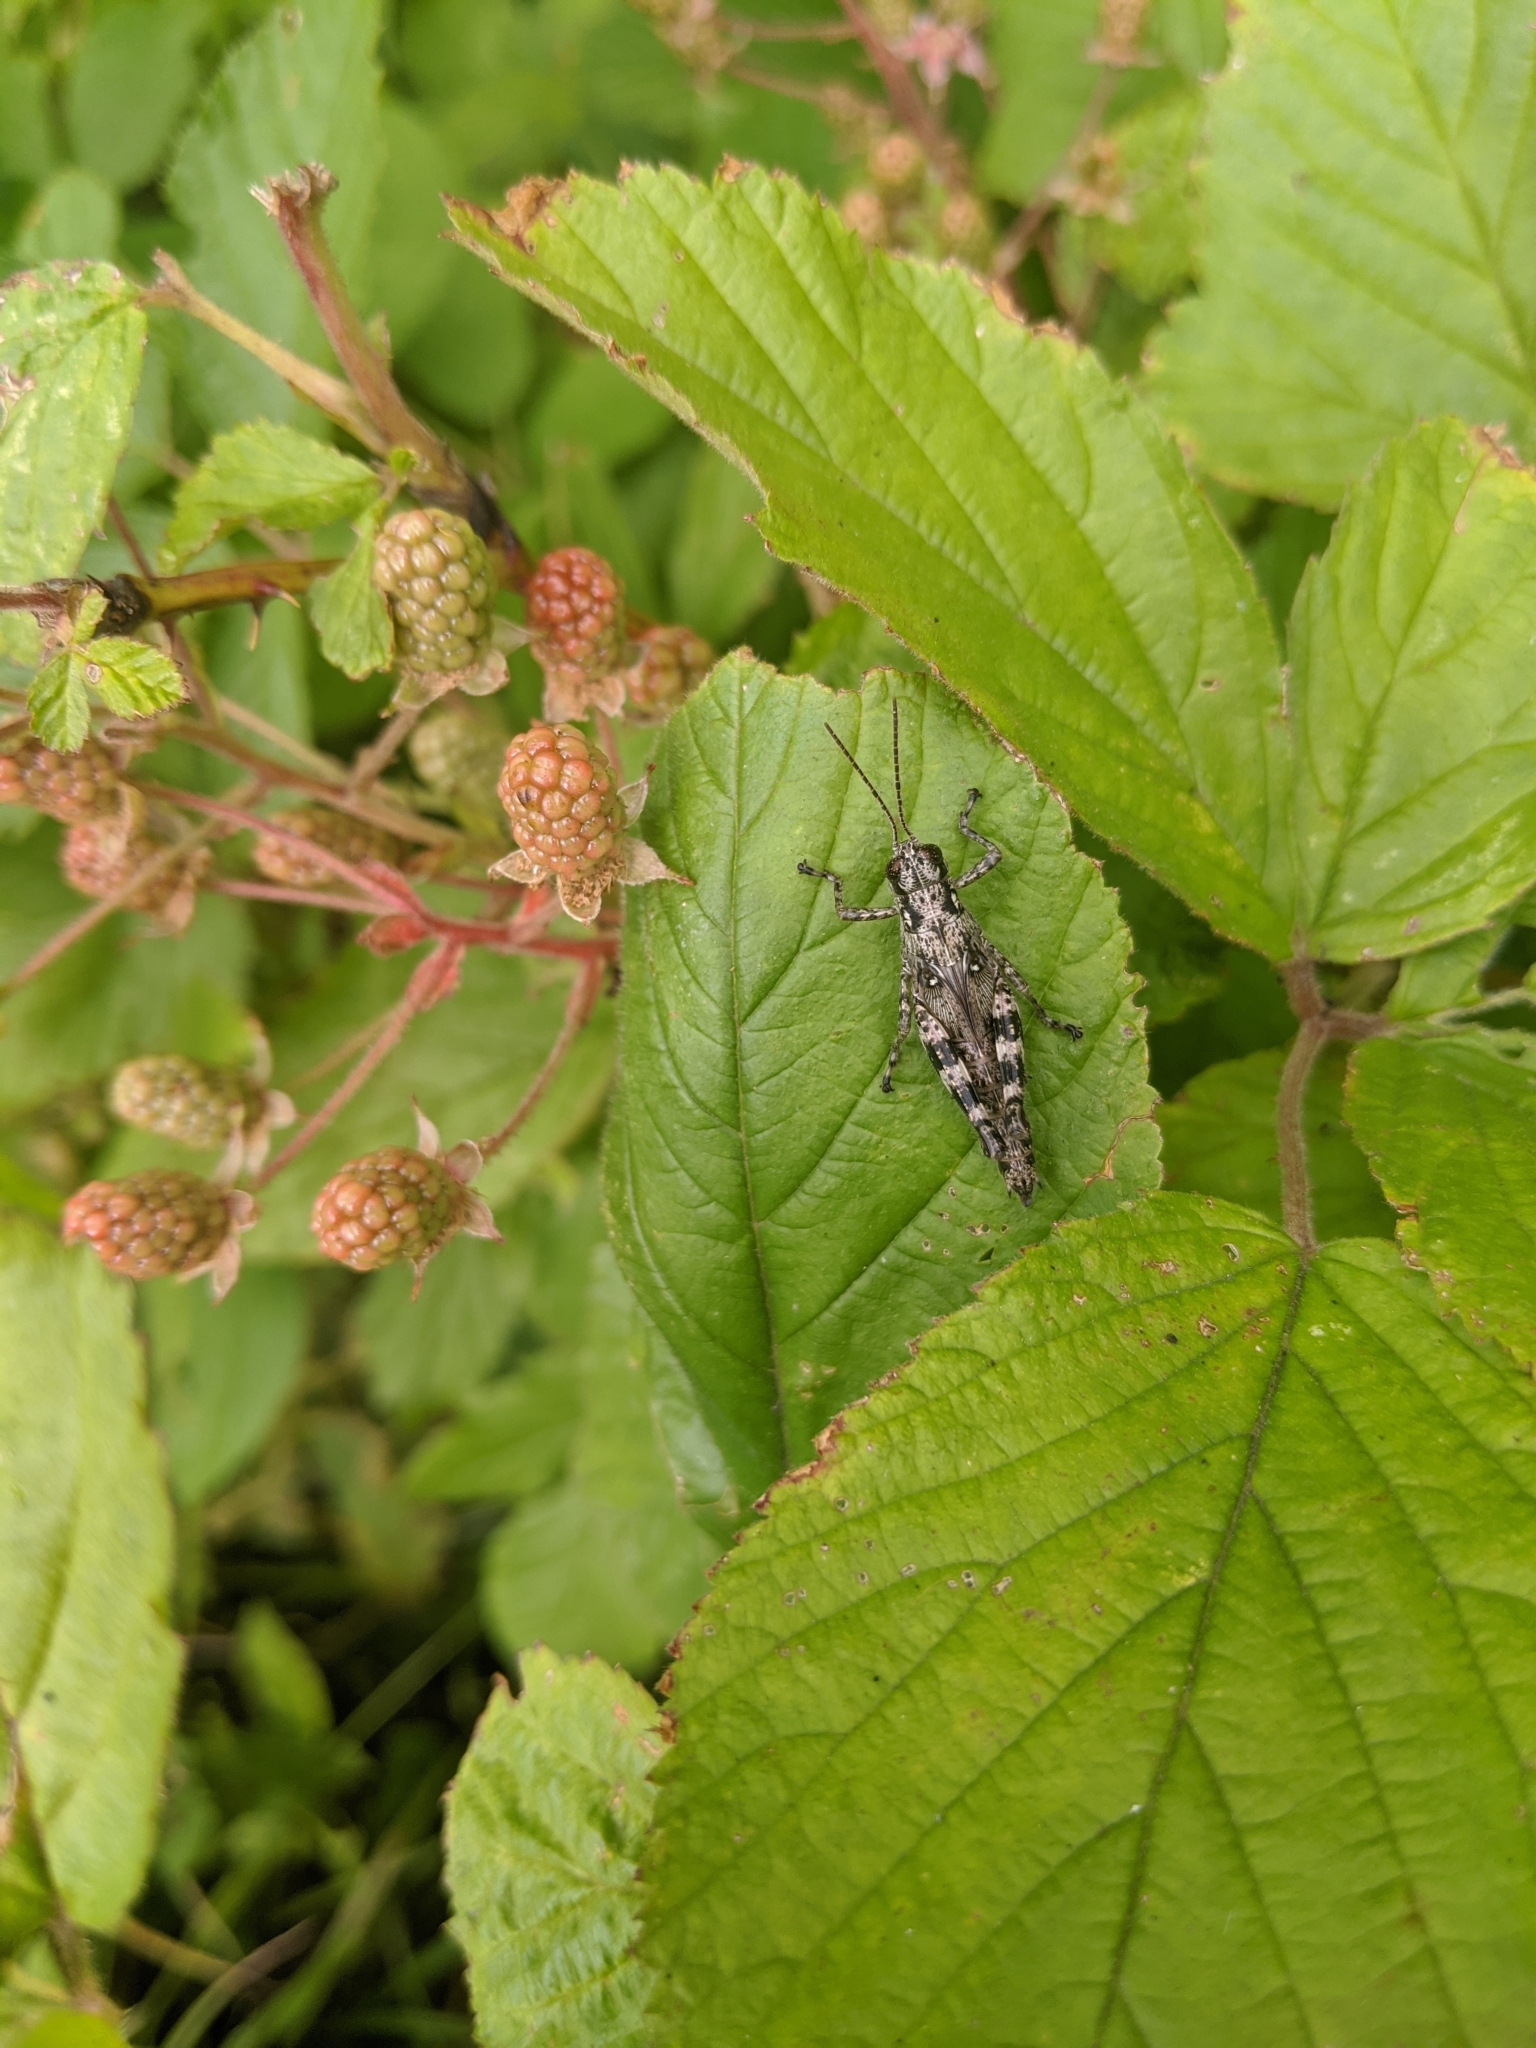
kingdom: Animalia
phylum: Arthropoda
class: Insecta
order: Orthoptera
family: Acrididae
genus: Melanoplus
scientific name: Melanoplus punctulatus
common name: Pine-tree spur-throat grasshopper
